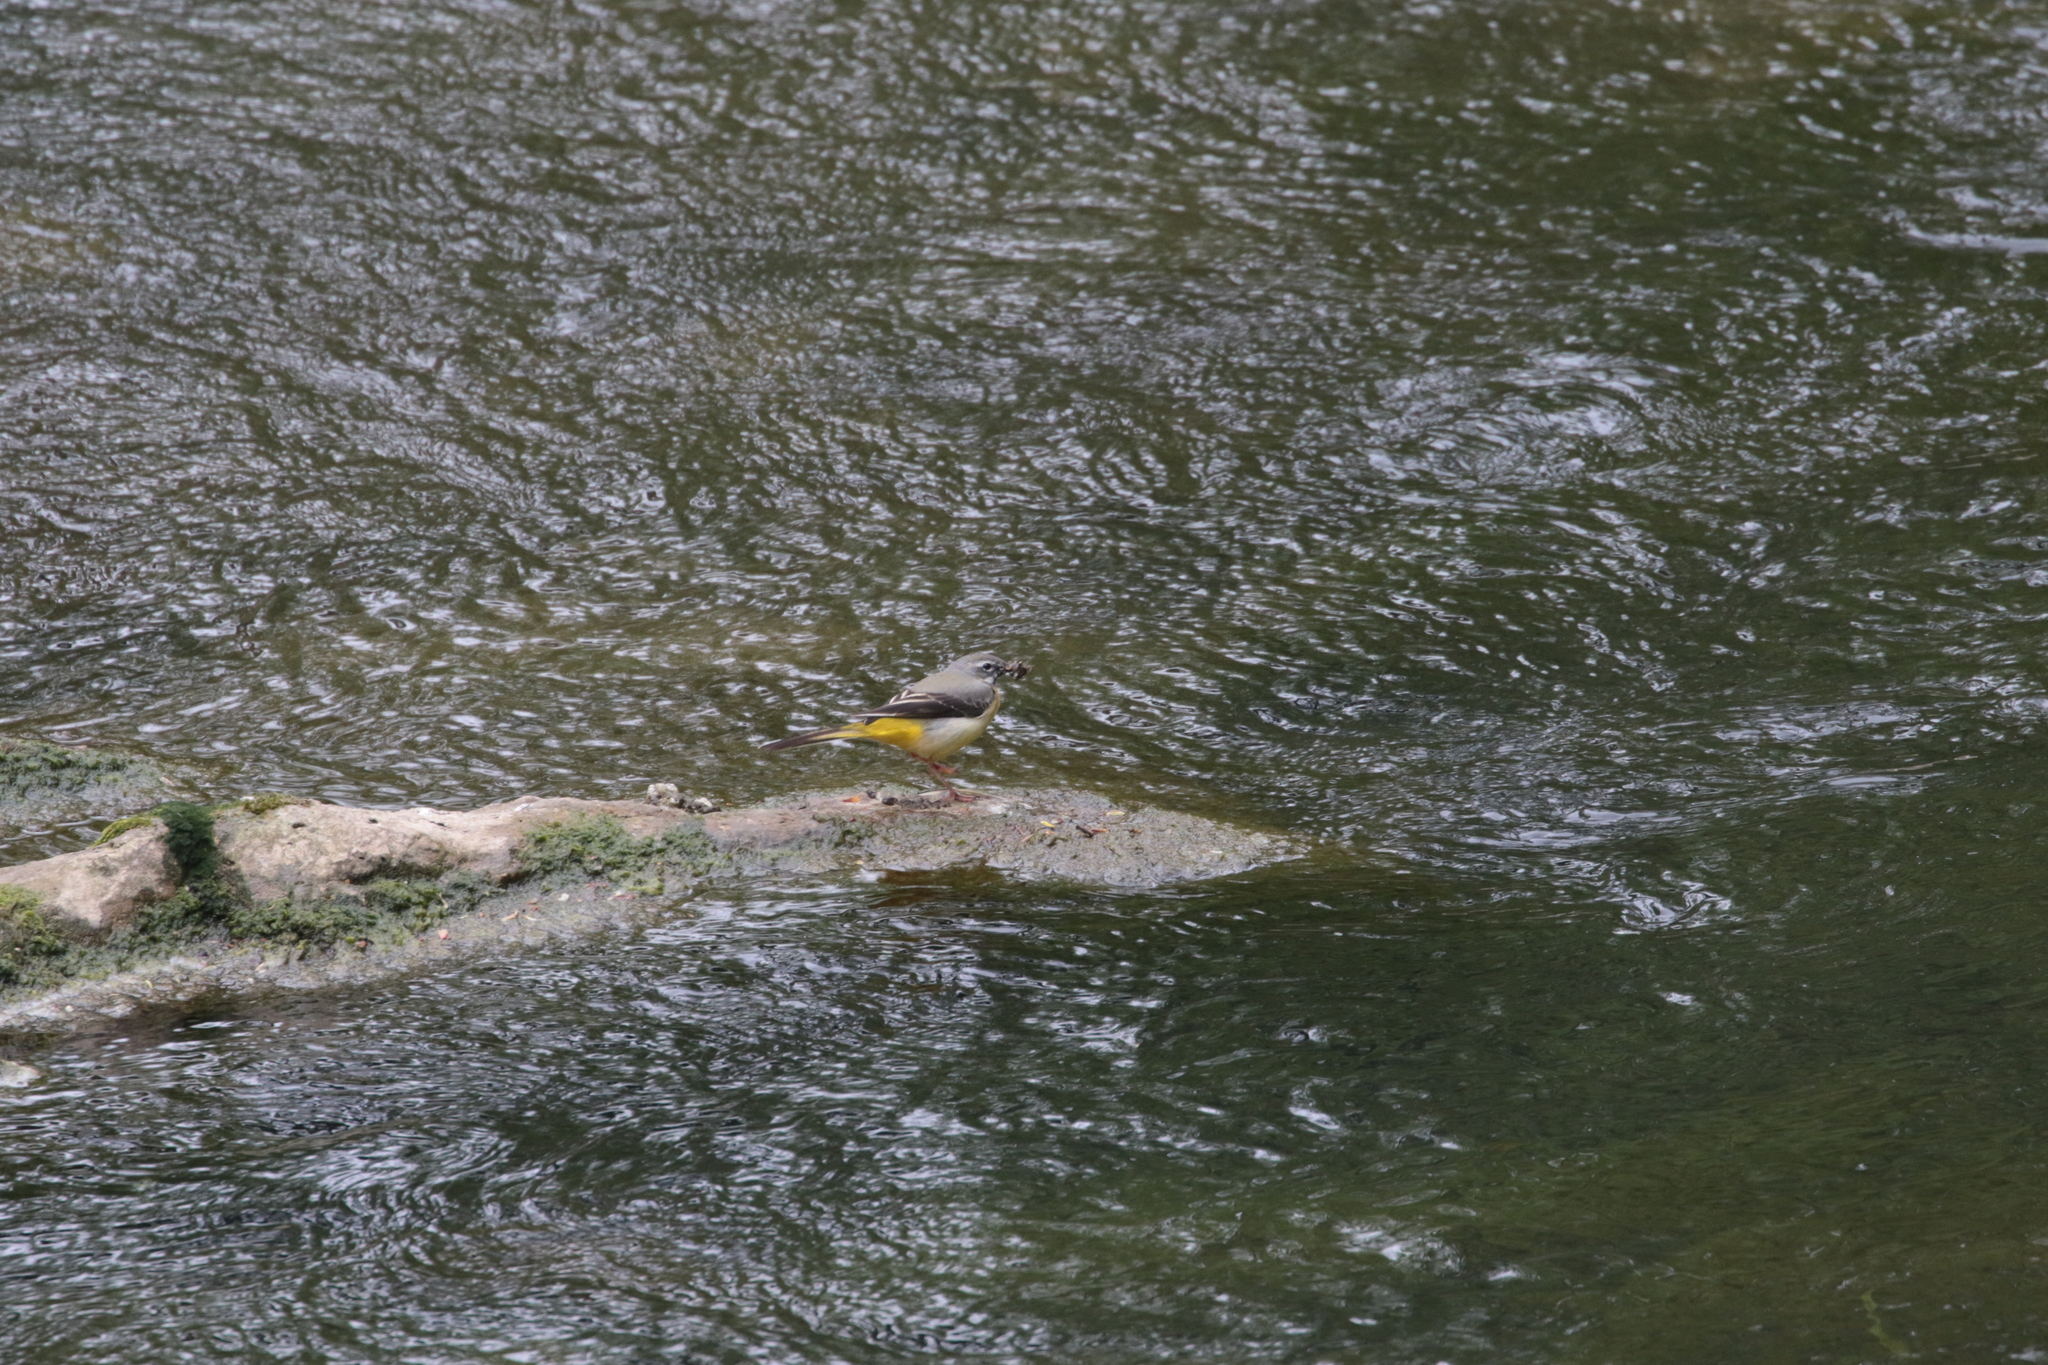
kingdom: Animalia
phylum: Chordata
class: Aves
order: Passeriformes
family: Motacillidae
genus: Motacilla
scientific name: Motacilla cinerea
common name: Grey wagtail
